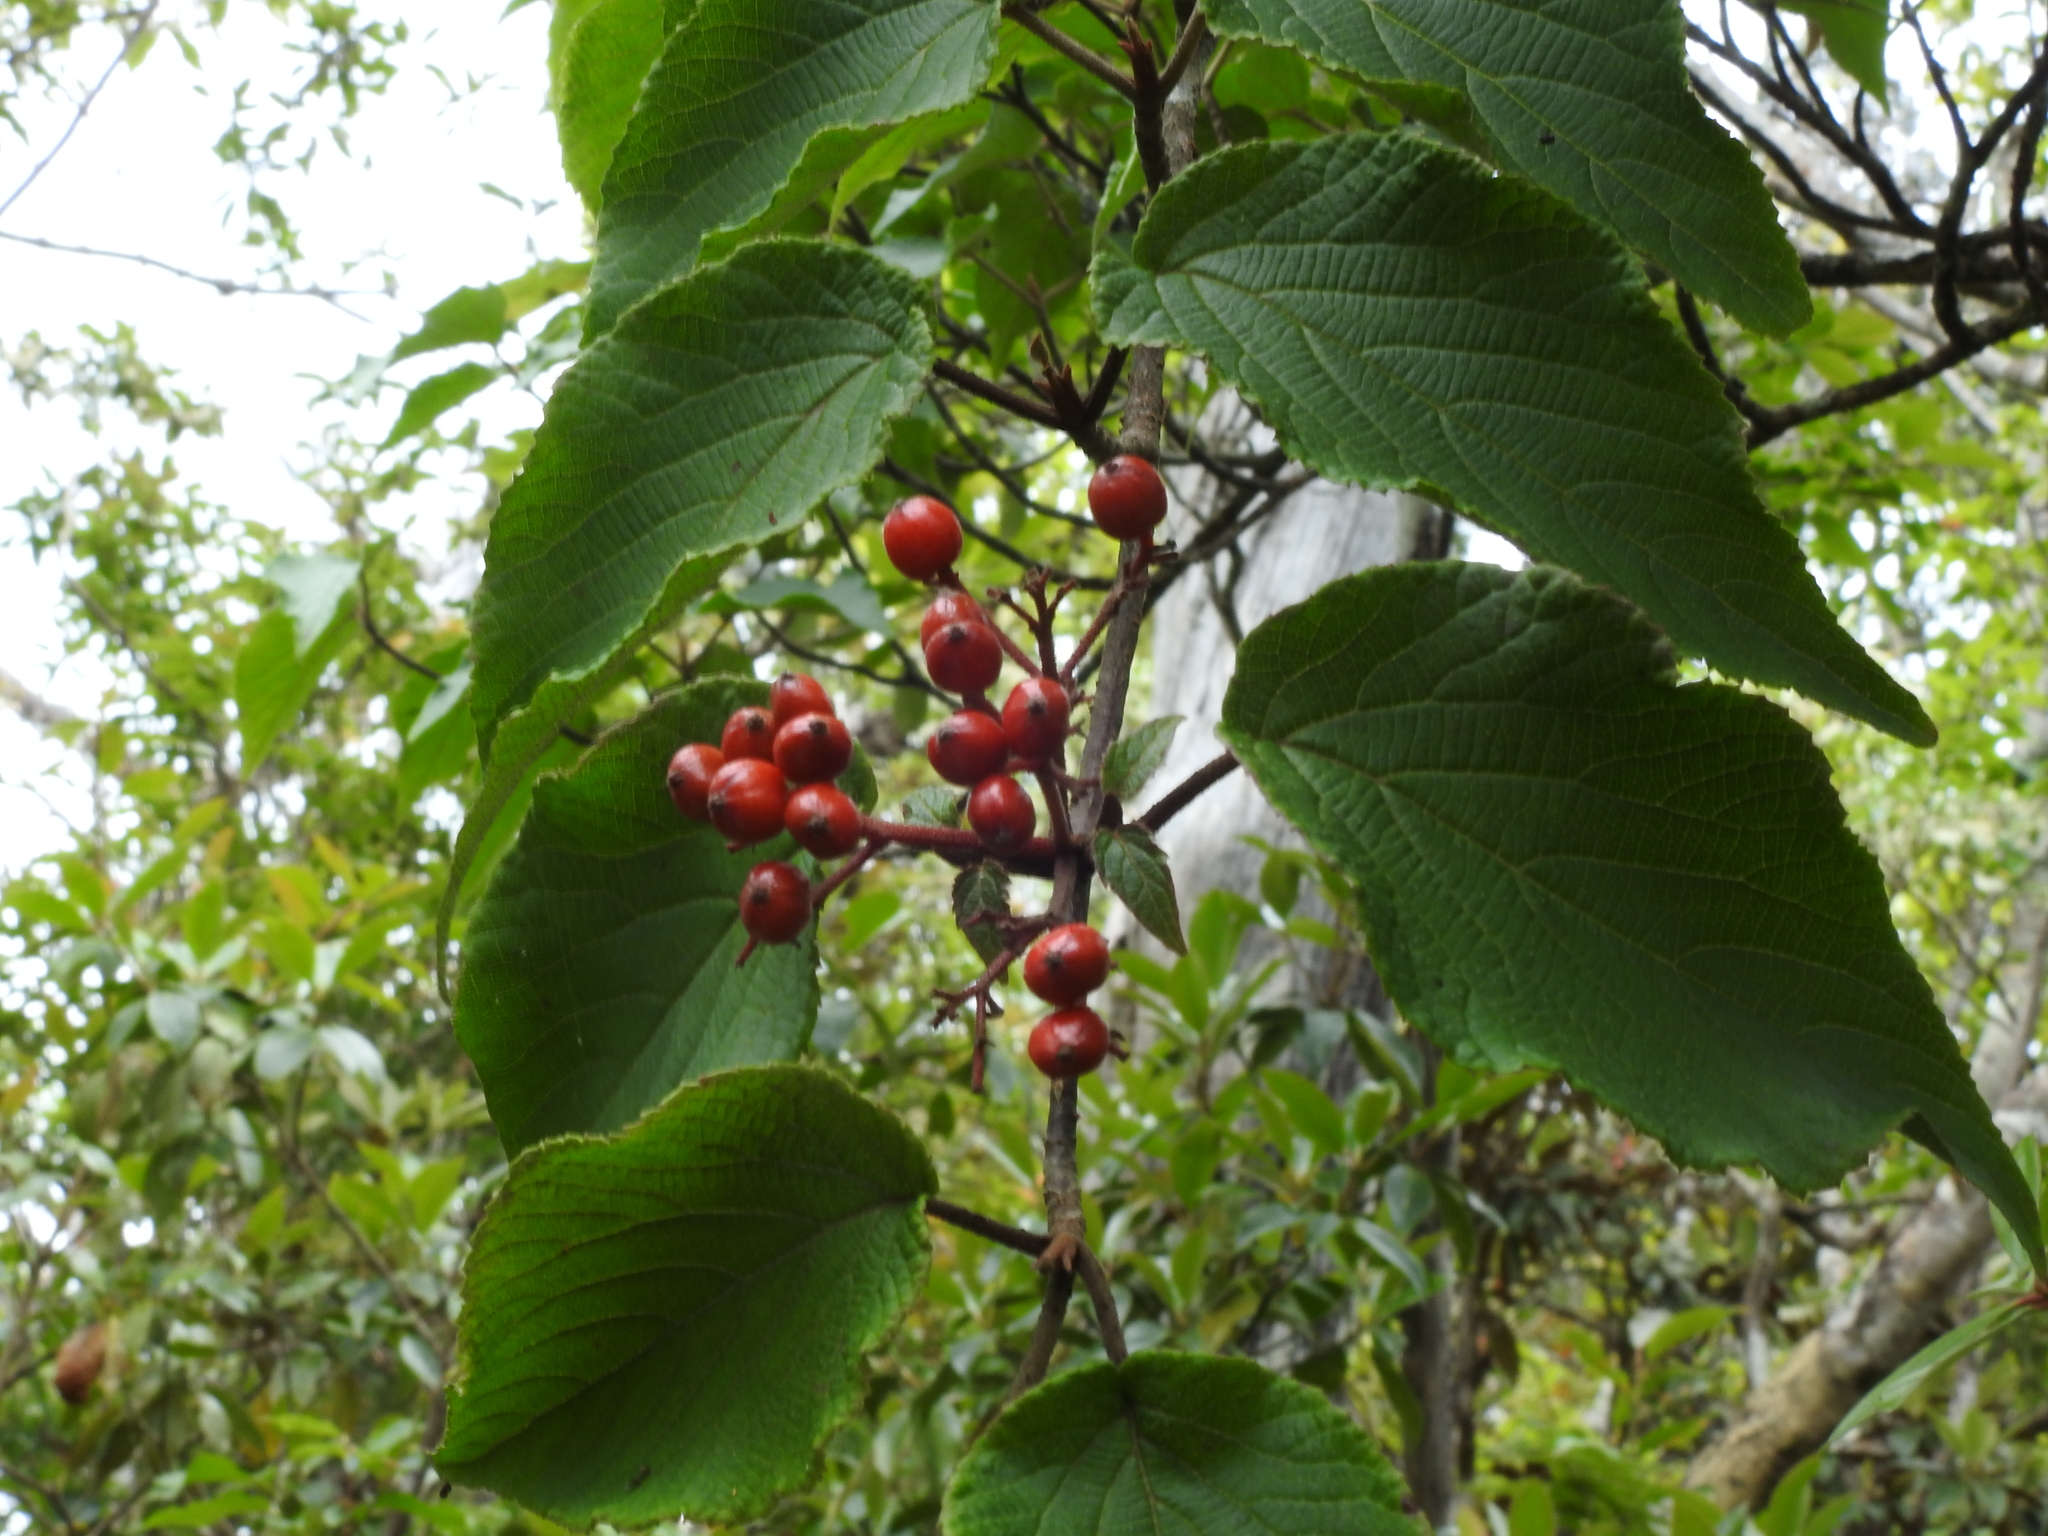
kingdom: Plantae
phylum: Tracheophyta
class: Magnoliopsida
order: Dipsacales
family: Viburnaceae
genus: Viburnum
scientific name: Viburnum furcatum
